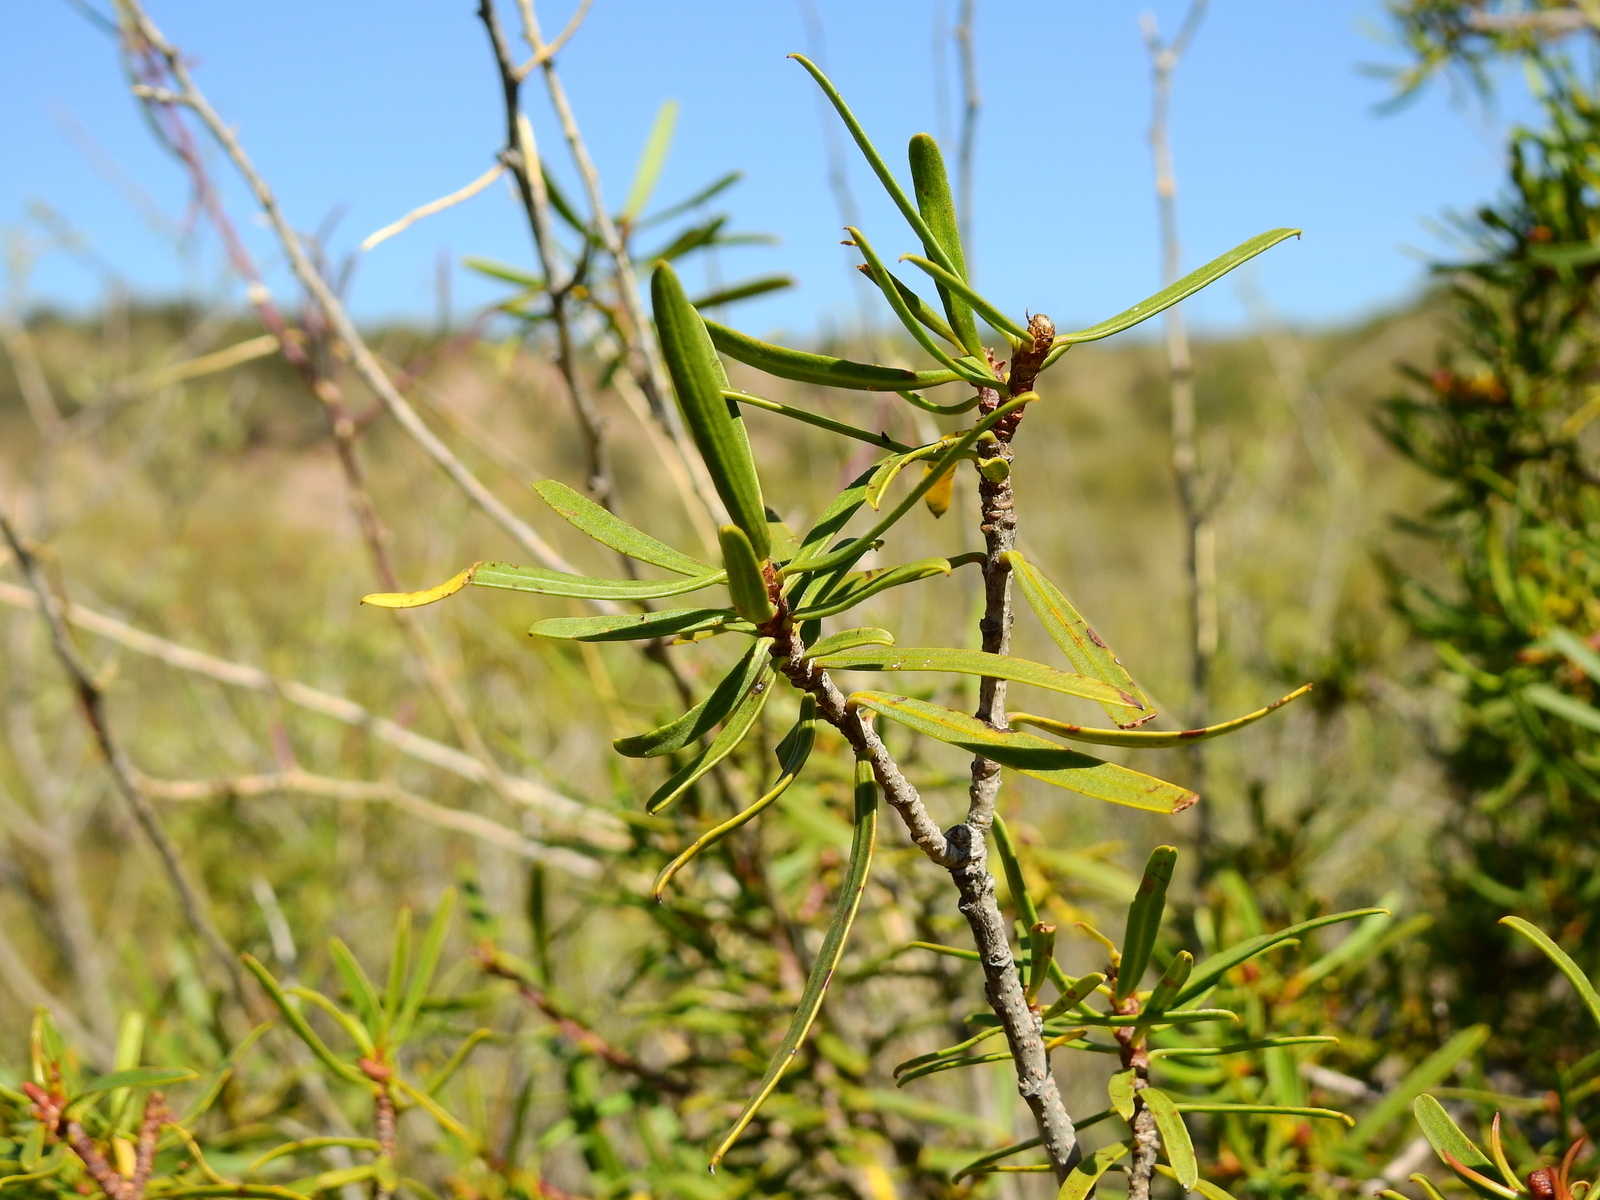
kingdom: Plantae
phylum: Tracheophyta
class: Magnoliopsida
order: Malpighiales
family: Euphorbiaceae
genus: Colliguaja
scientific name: Colliguaja integerrima
